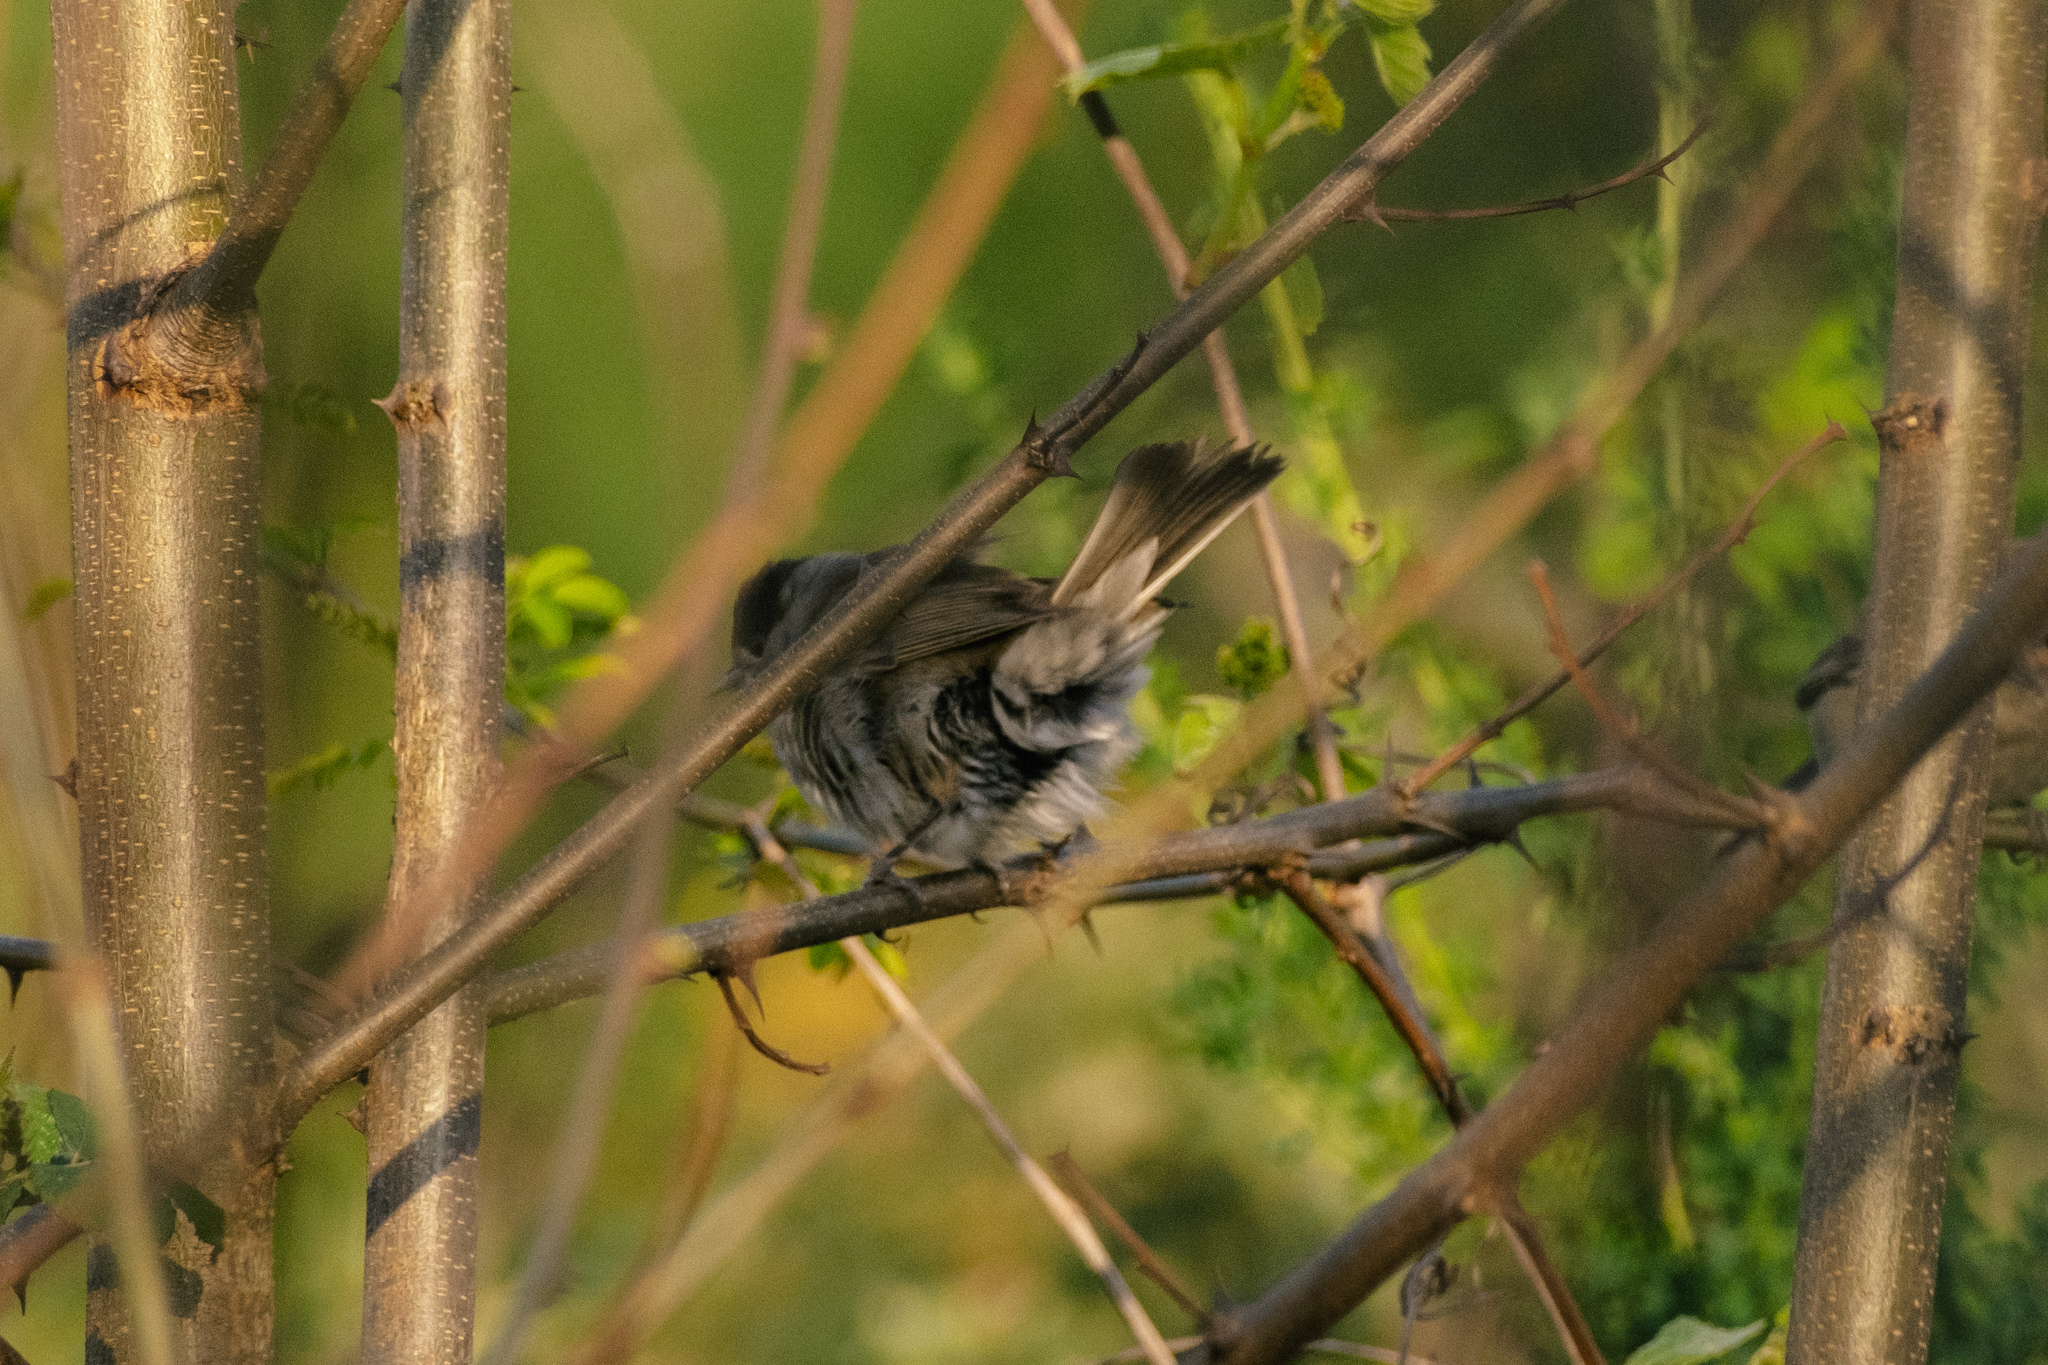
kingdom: Animalia
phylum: Chordata
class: Aves
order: Passeriformes
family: Sylviidae
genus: Sylvia
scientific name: Sylvia atricapilla
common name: Eurasian blackcap
